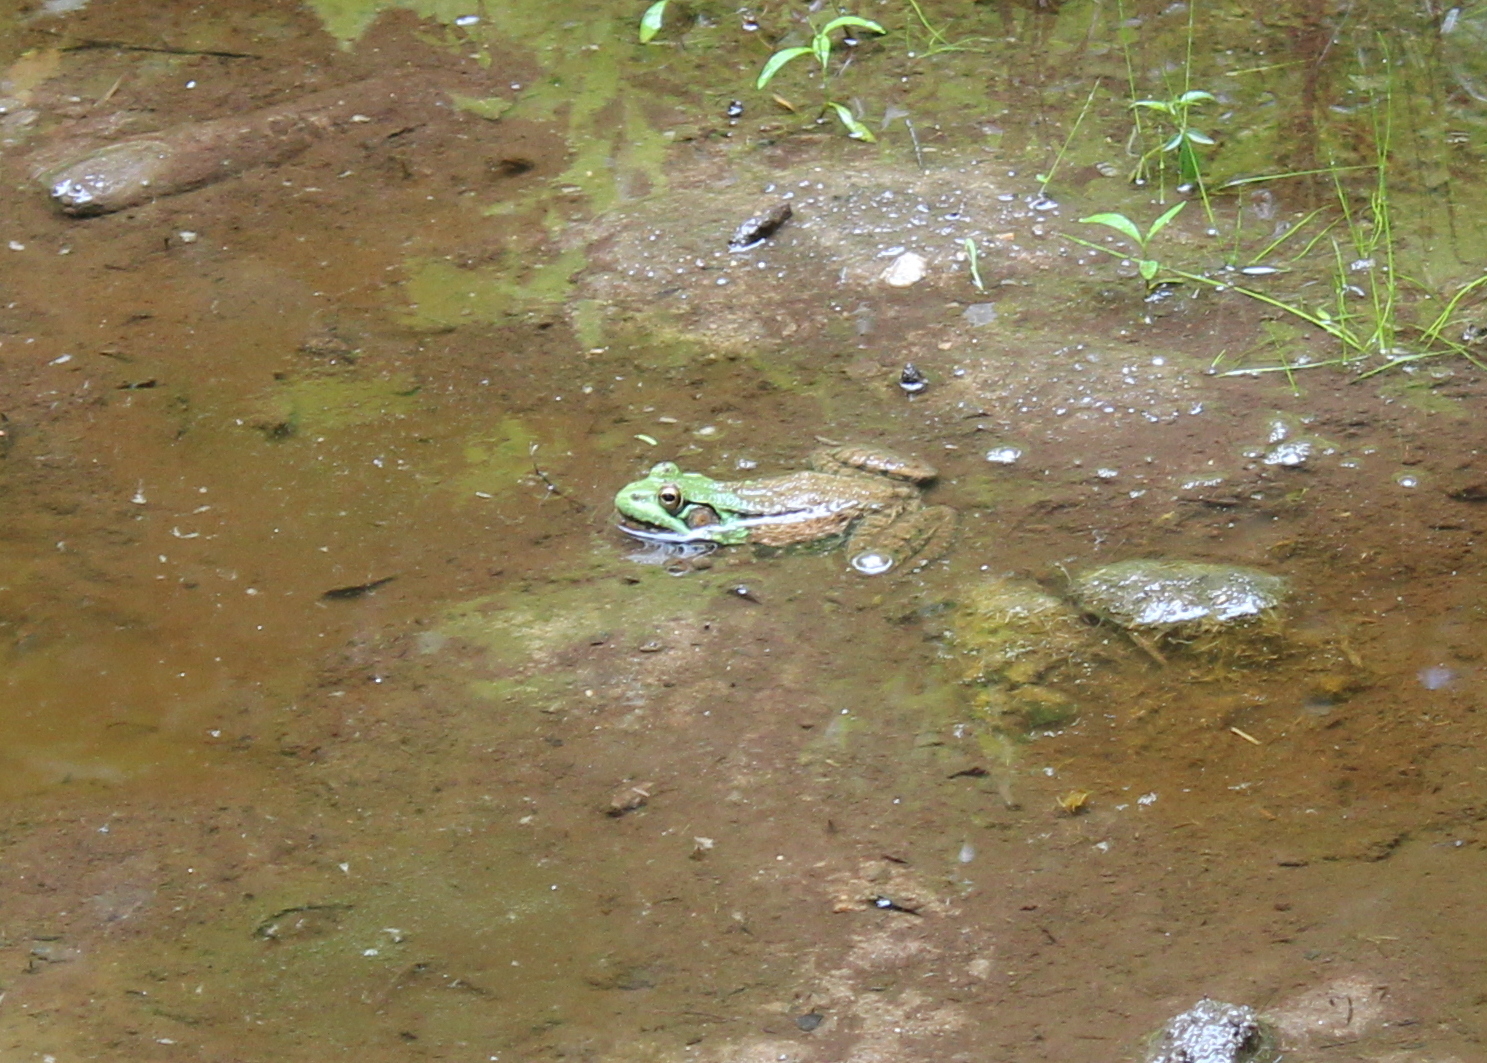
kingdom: Animalia
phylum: Chordata
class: Amphibia
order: Anura
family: Ranidae
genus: Lithobates
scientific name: Lithobates clamitans
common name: Green frog
